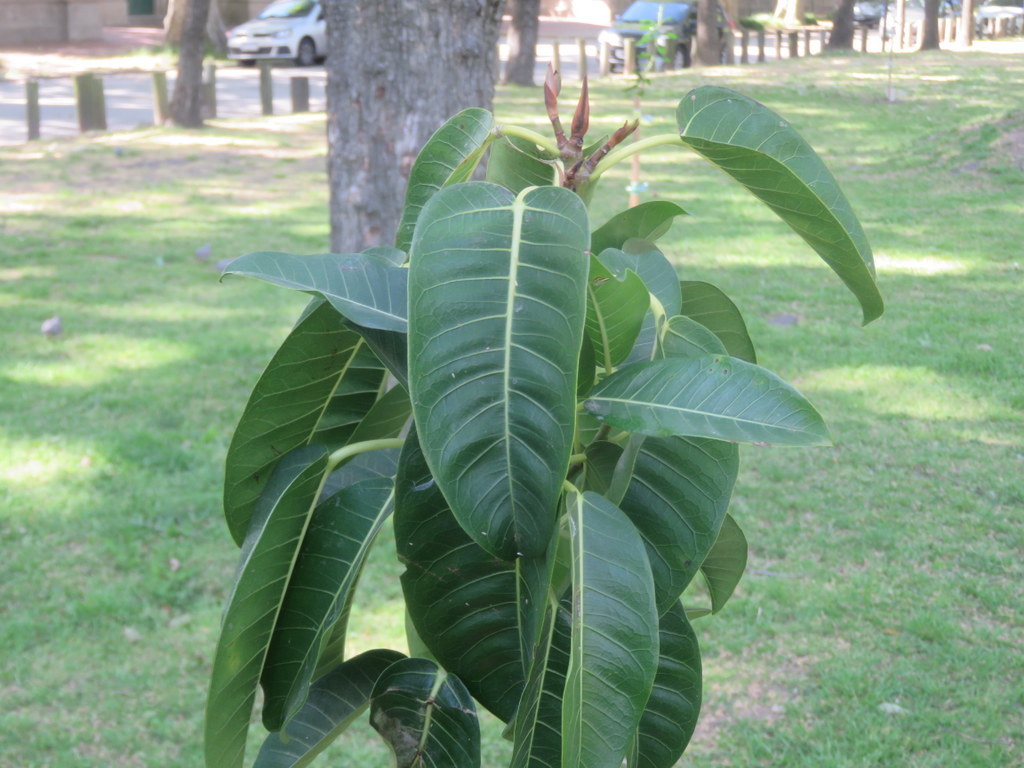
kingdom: Plantae
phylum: Tracheophyta
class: Magnoliopsida
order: Rosales
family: Moraceae
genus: Ficus
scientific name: Ficus luschnathiana
